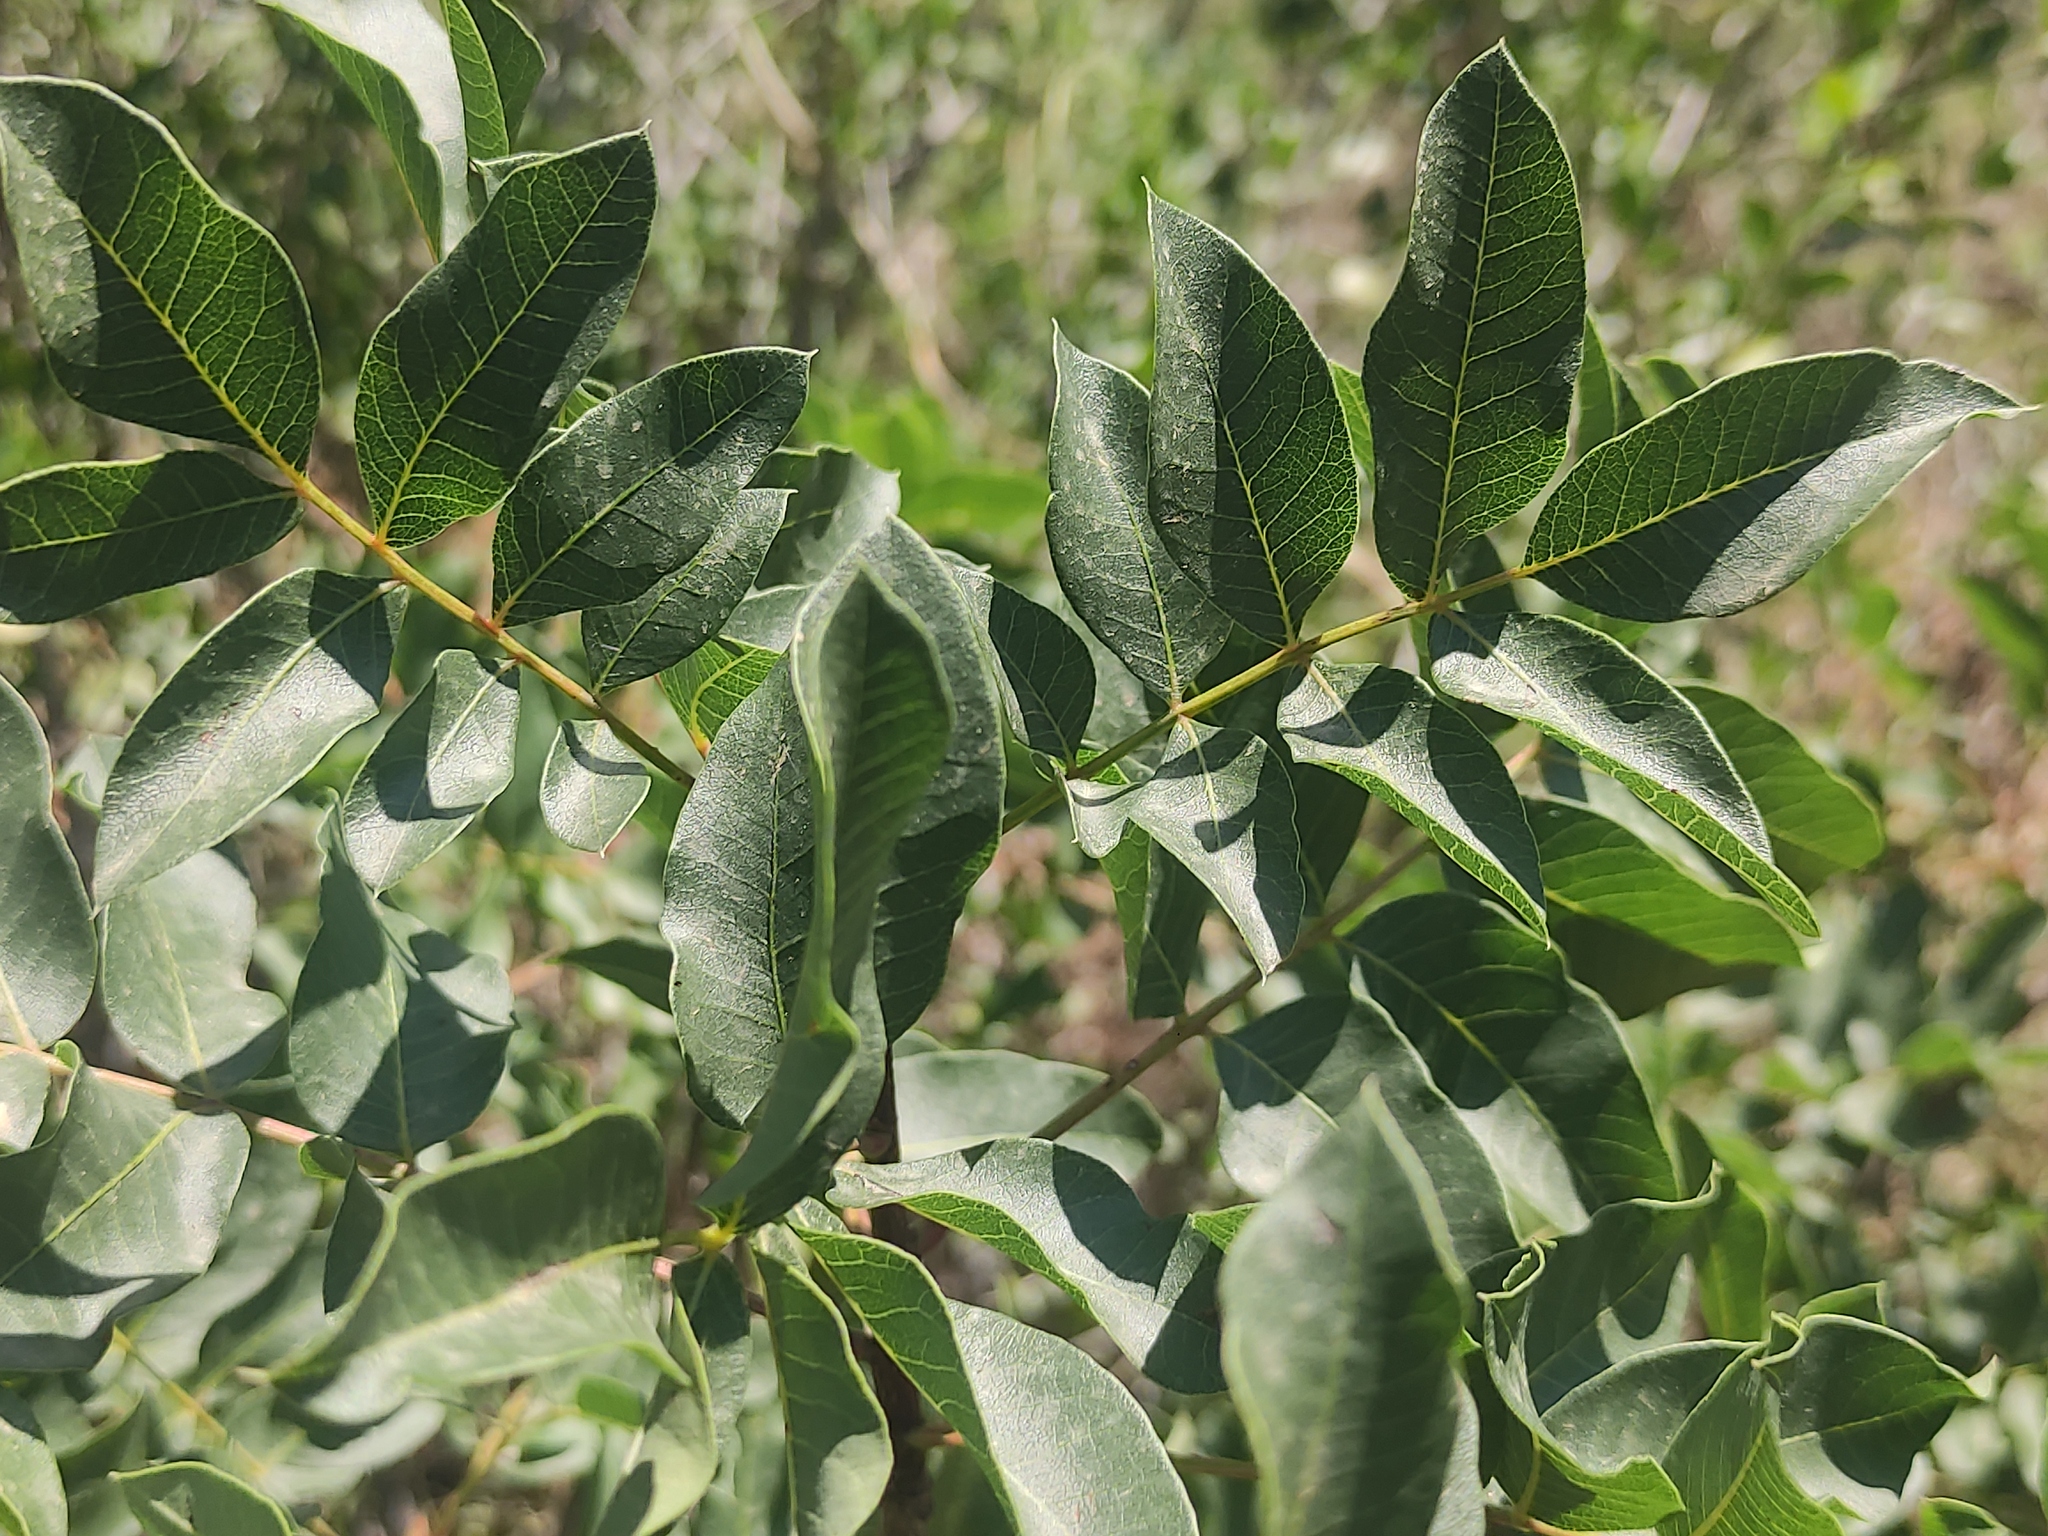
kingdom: Plantae
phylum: Tracheophyta
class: Magnoliopsida
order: Sapindales
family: Anacardiaceae
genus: Pistacia
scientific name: Pistacia terebinthus
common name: Terebinth
